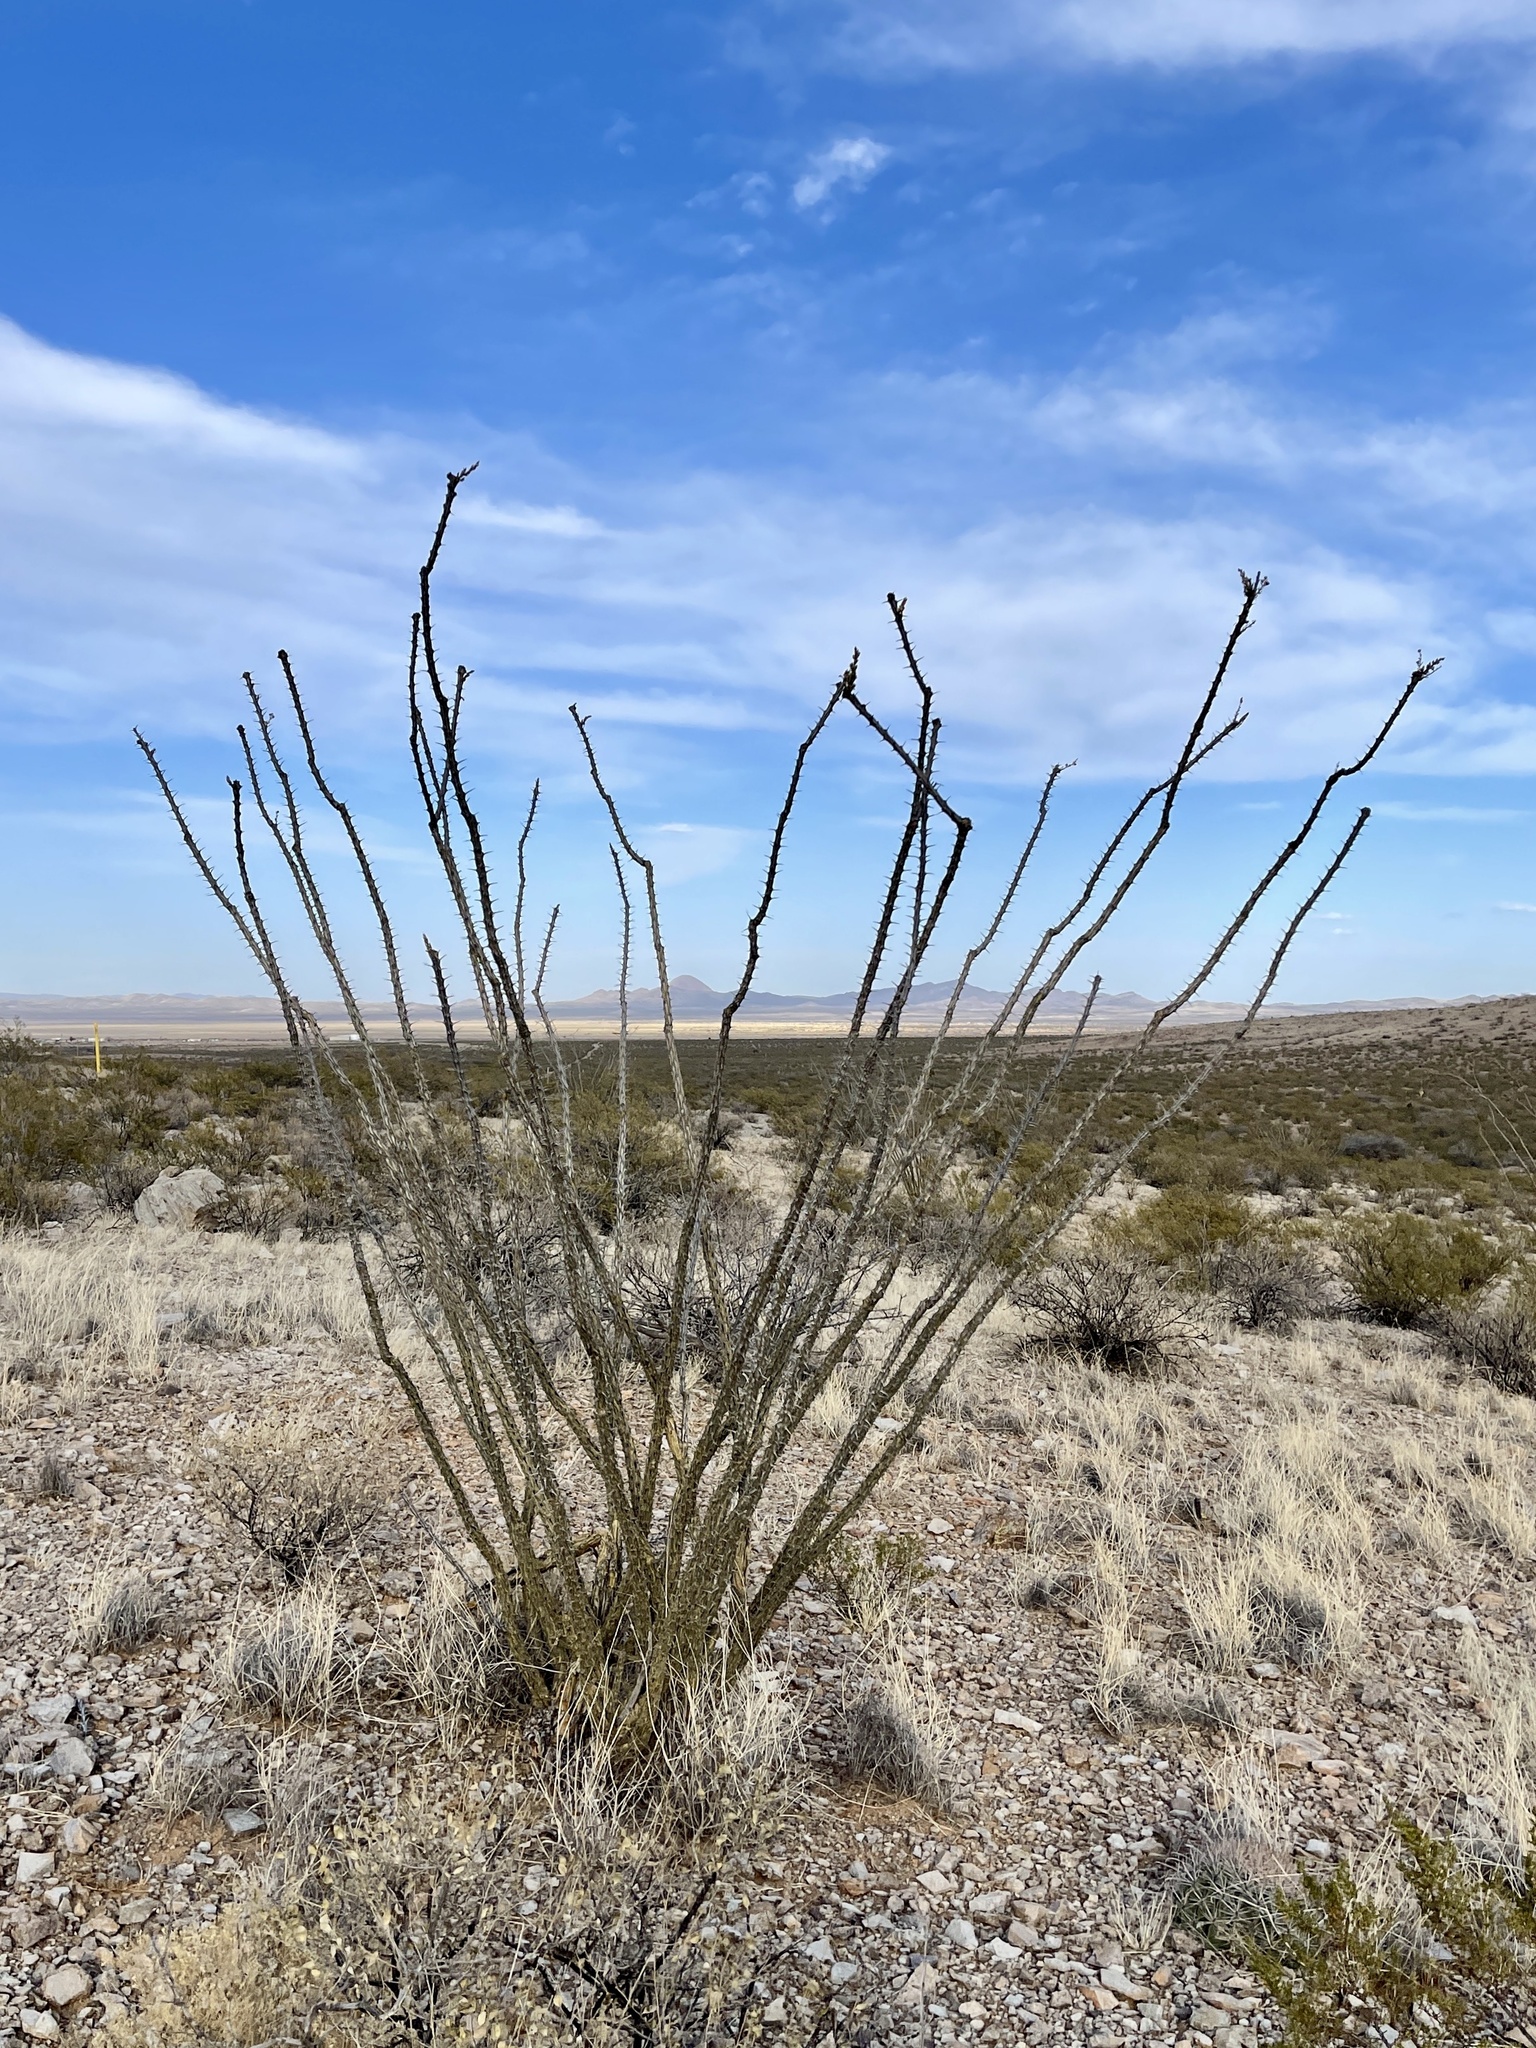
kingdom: Plantae
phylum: Tracheophyta
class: Magnoliopsida
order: Ericales
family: Fouquieriaceae
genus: Fouquieria
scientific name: Fouquieria splendens
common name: Vine-cactus
